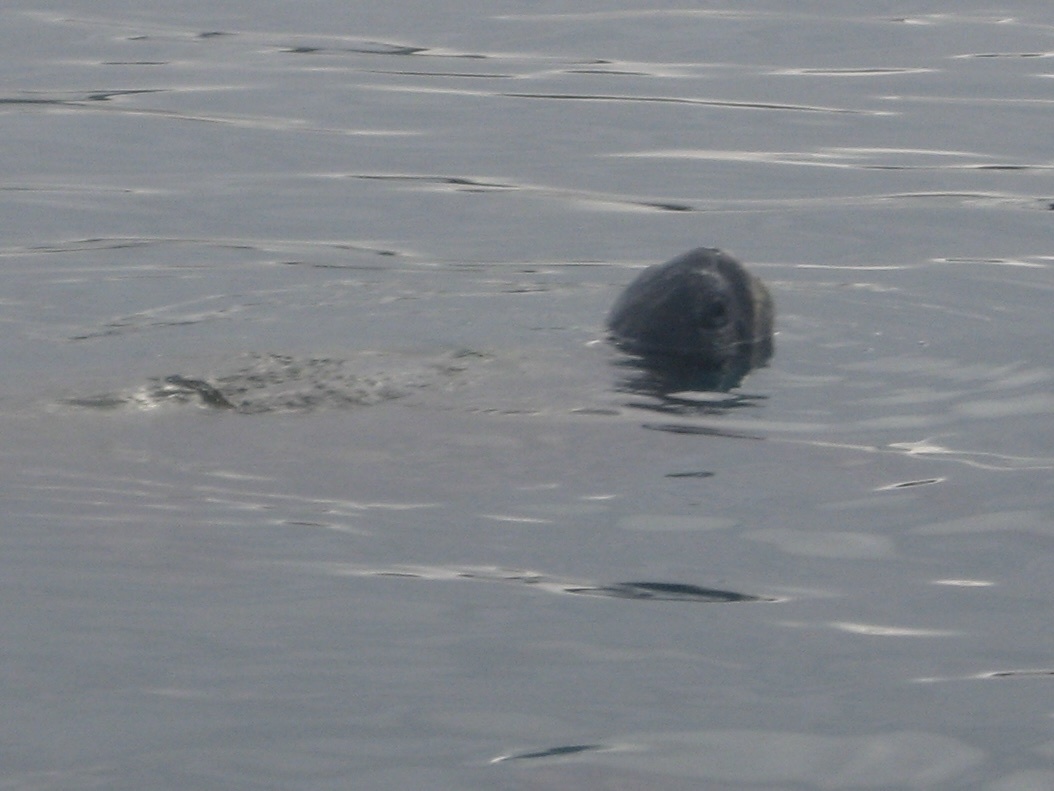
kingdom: Animalia
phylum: Chordata
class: Testudines
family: Cheloniidae
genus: Chelonia
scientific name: Chelonia mydas
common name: Green turtle
